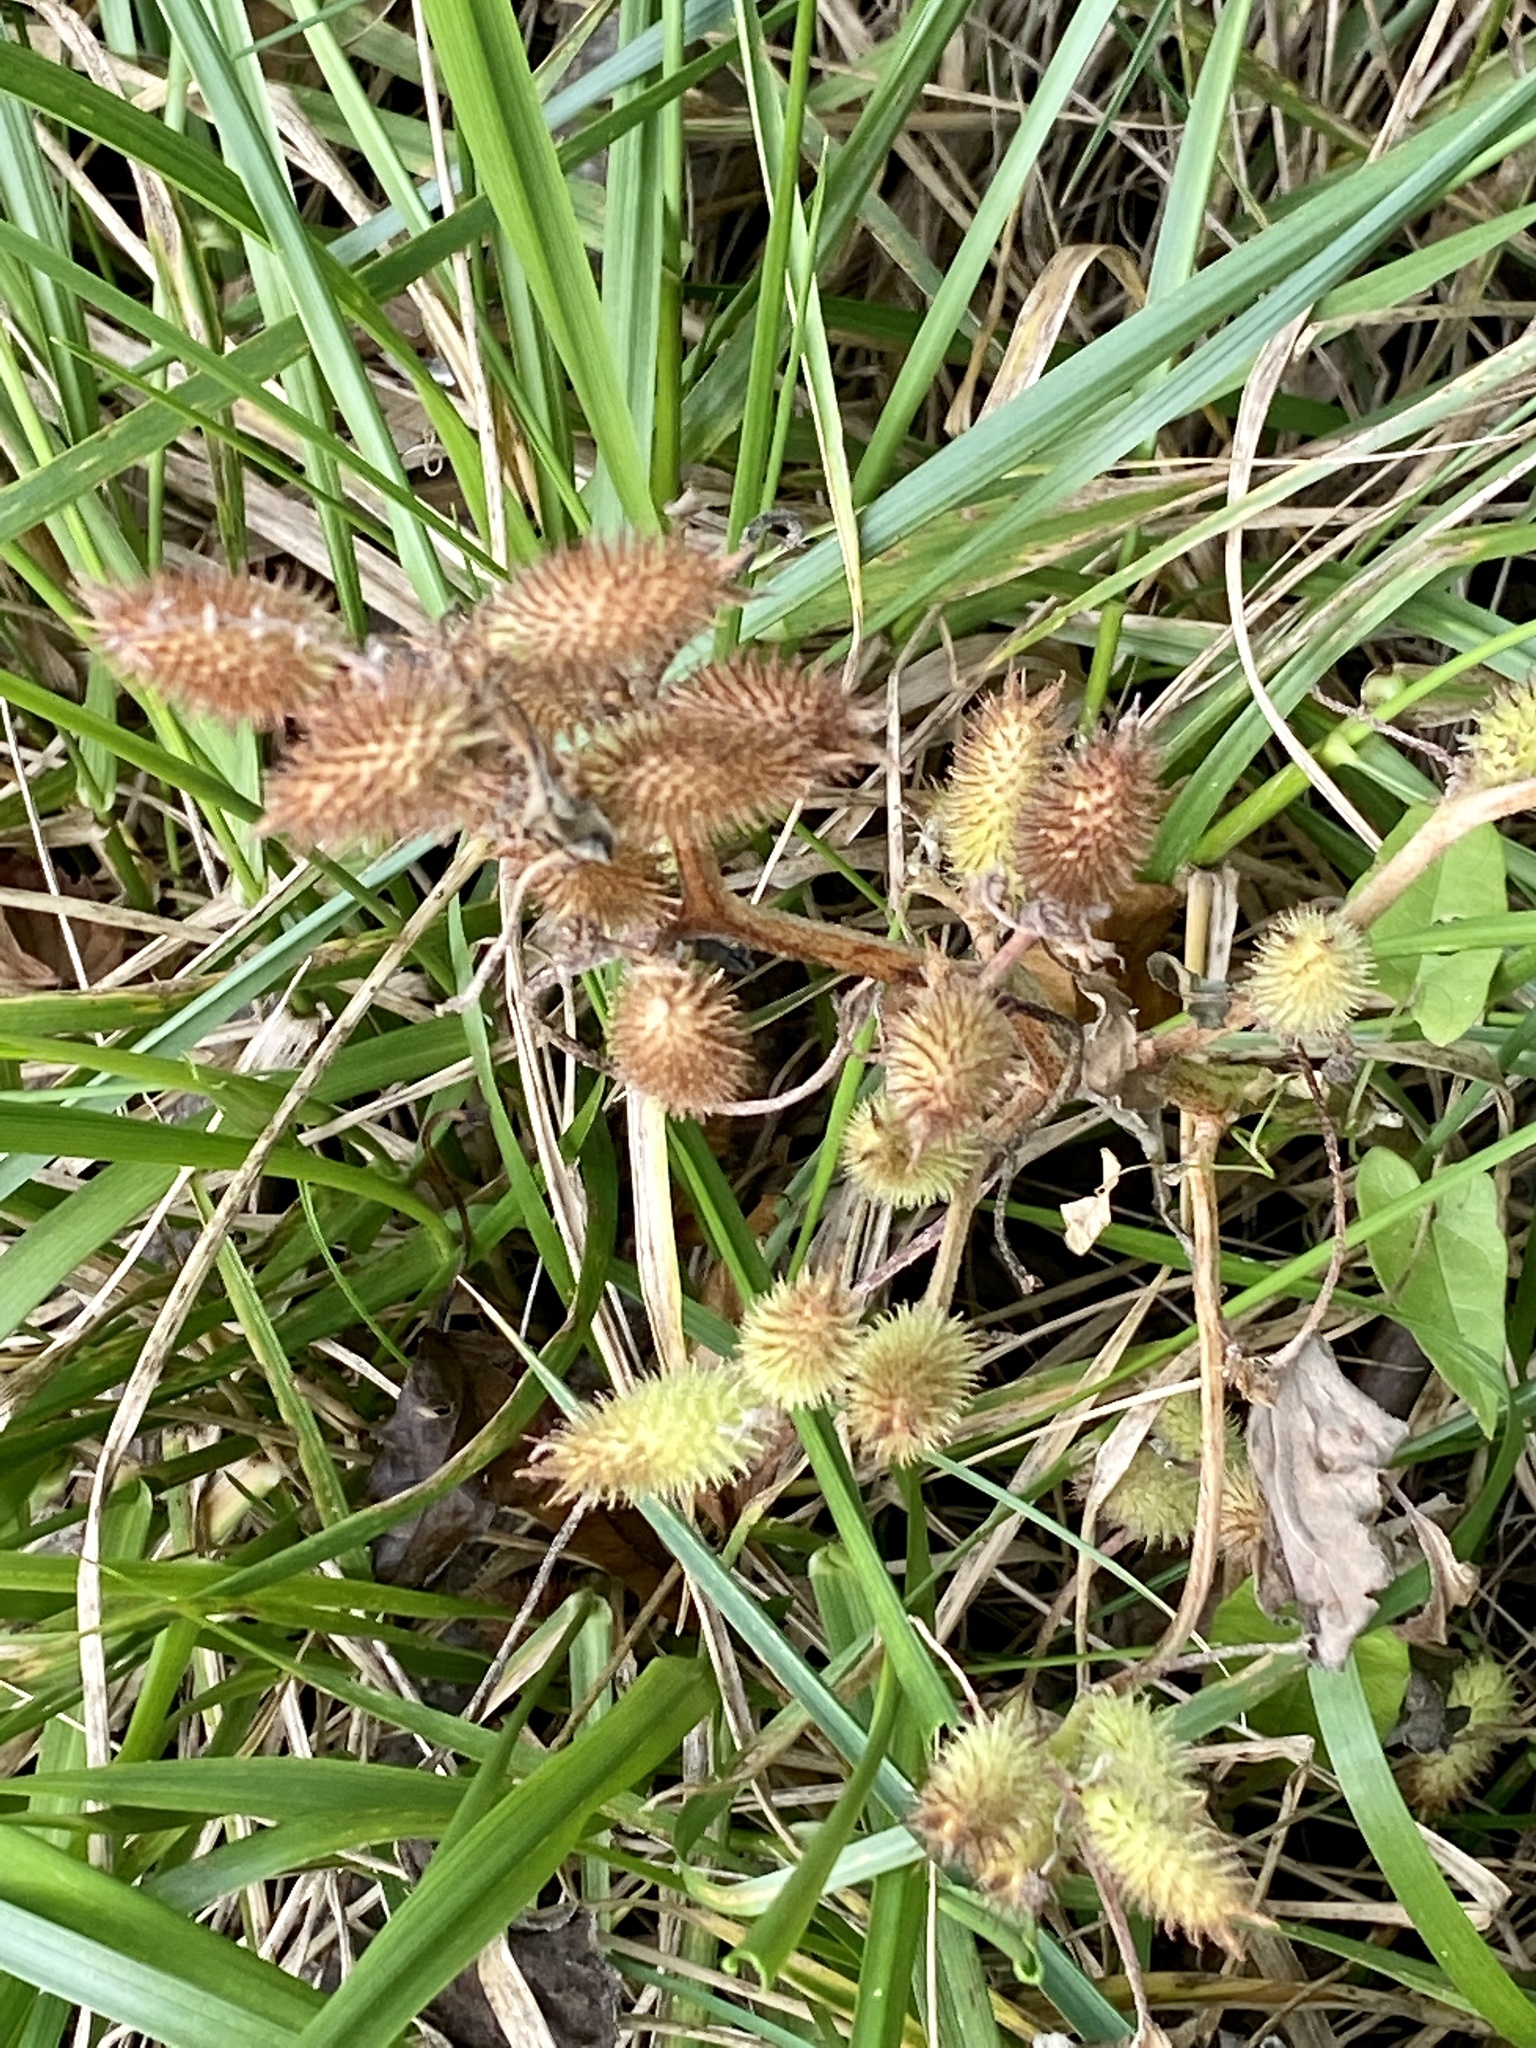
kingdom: Plantae
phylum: Tracheophyta
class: Magnoliopsida
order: Asterales
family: Asteraceae
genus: Xanthium
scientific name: Xanthium strumarium
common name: Rough cocklebur
